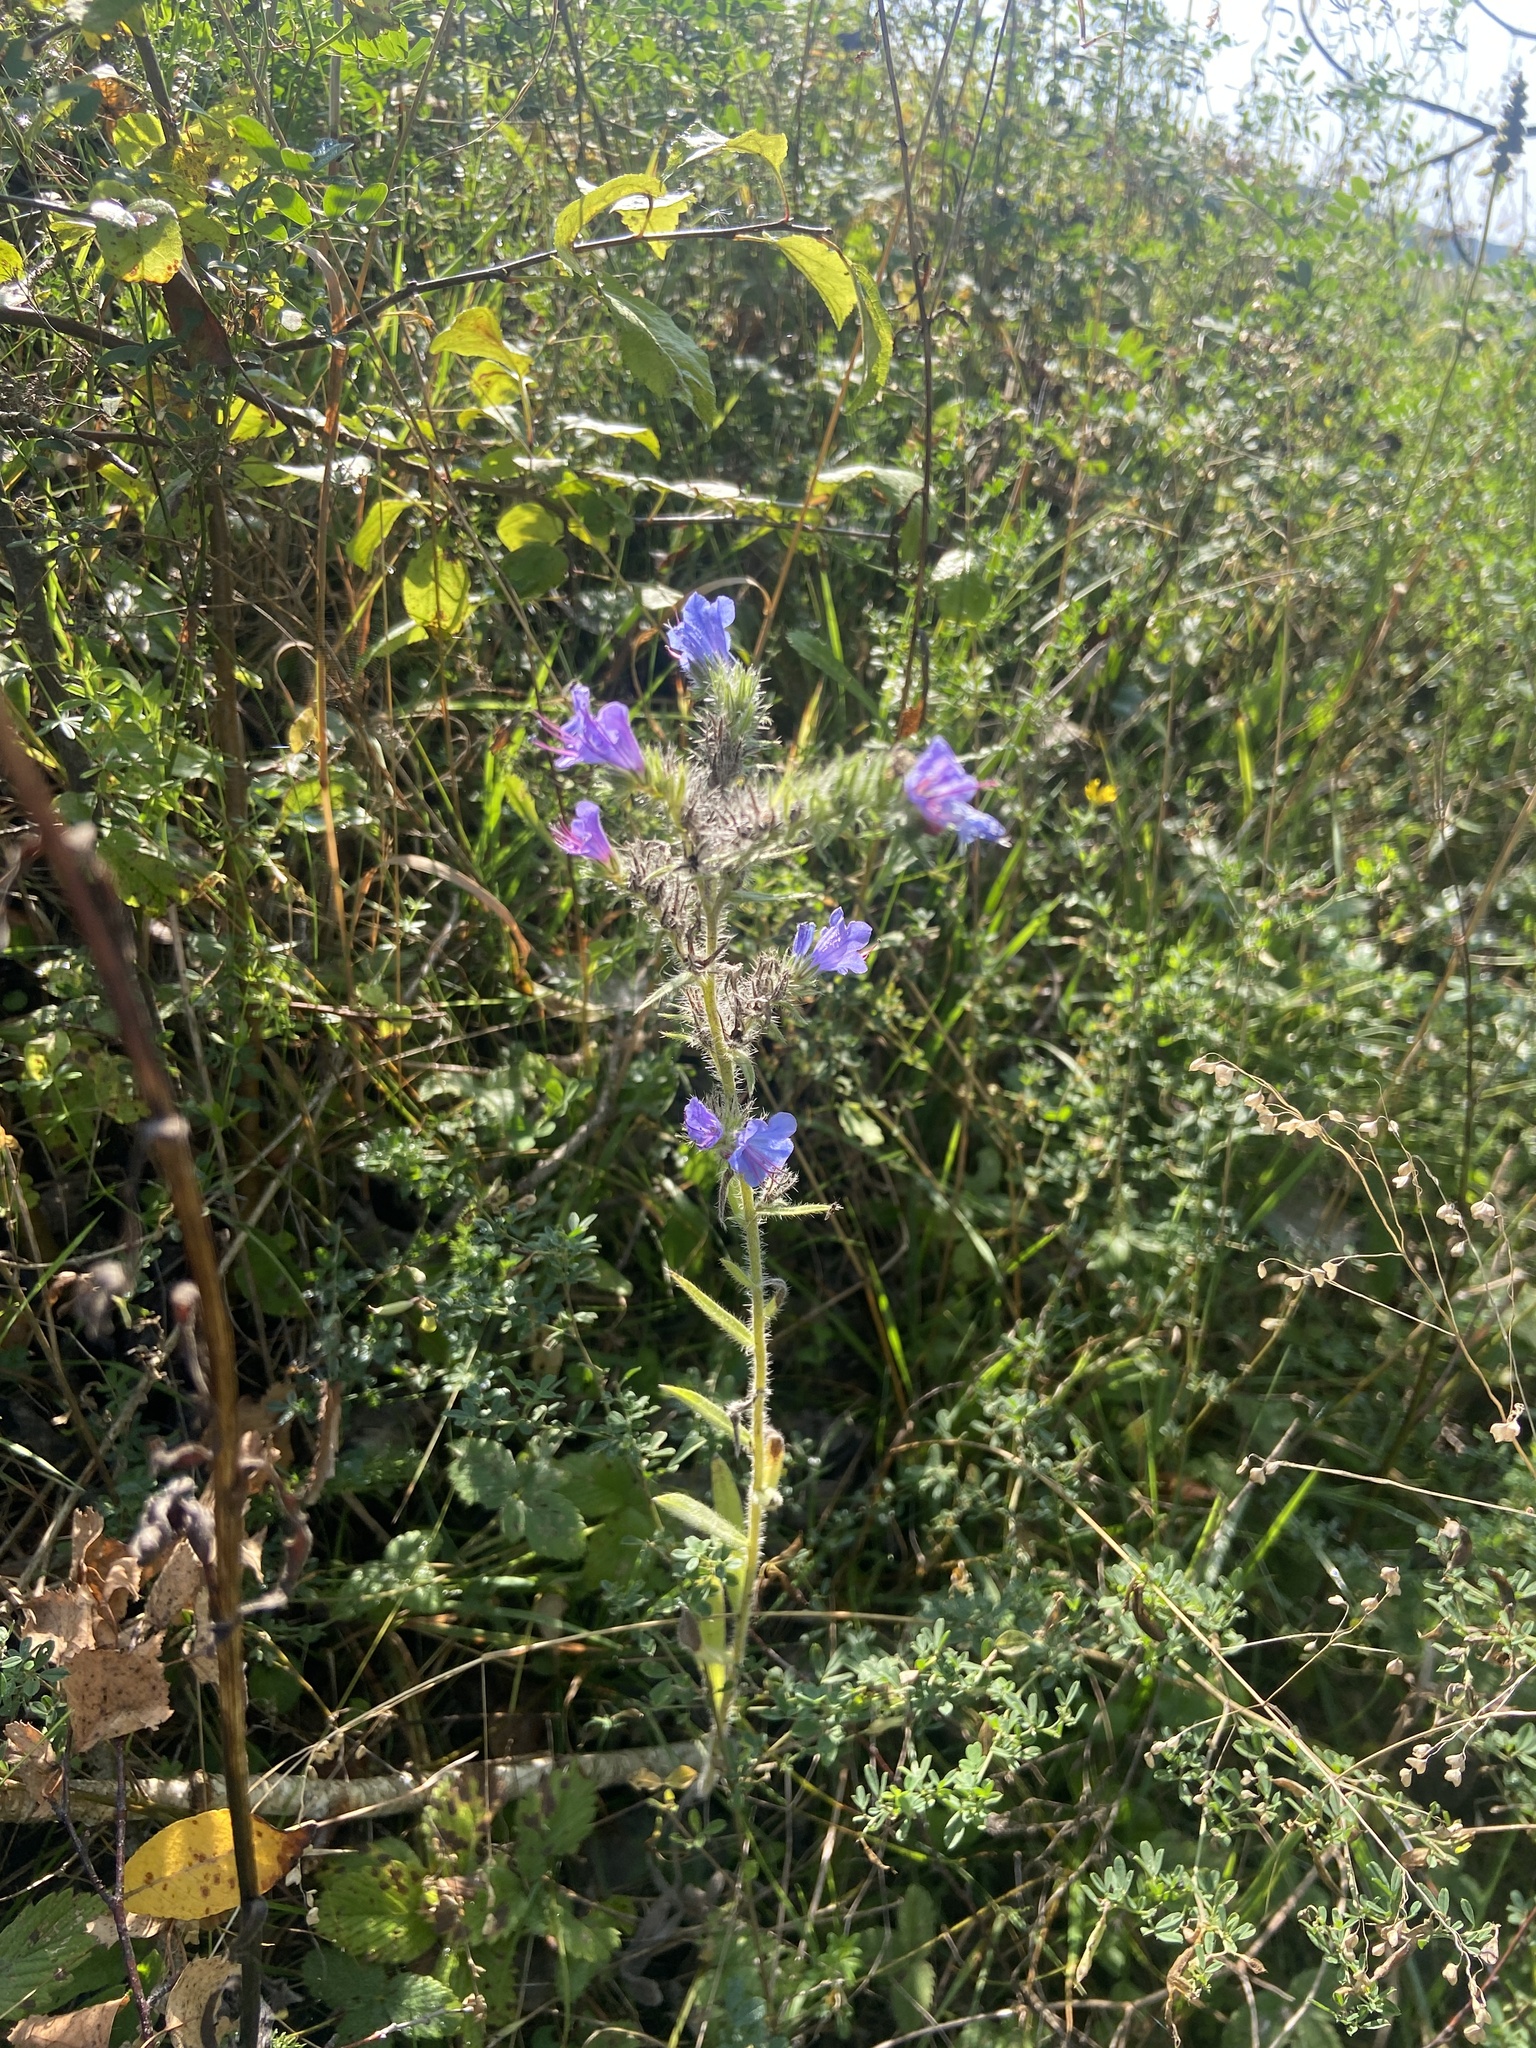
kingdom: Plantae
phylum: Tracheophyta
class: Magnoliopsida
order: Boraginales
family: Boraginaceae
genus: Echium
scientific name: Echium vulgare
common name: Common viper's bugloss
